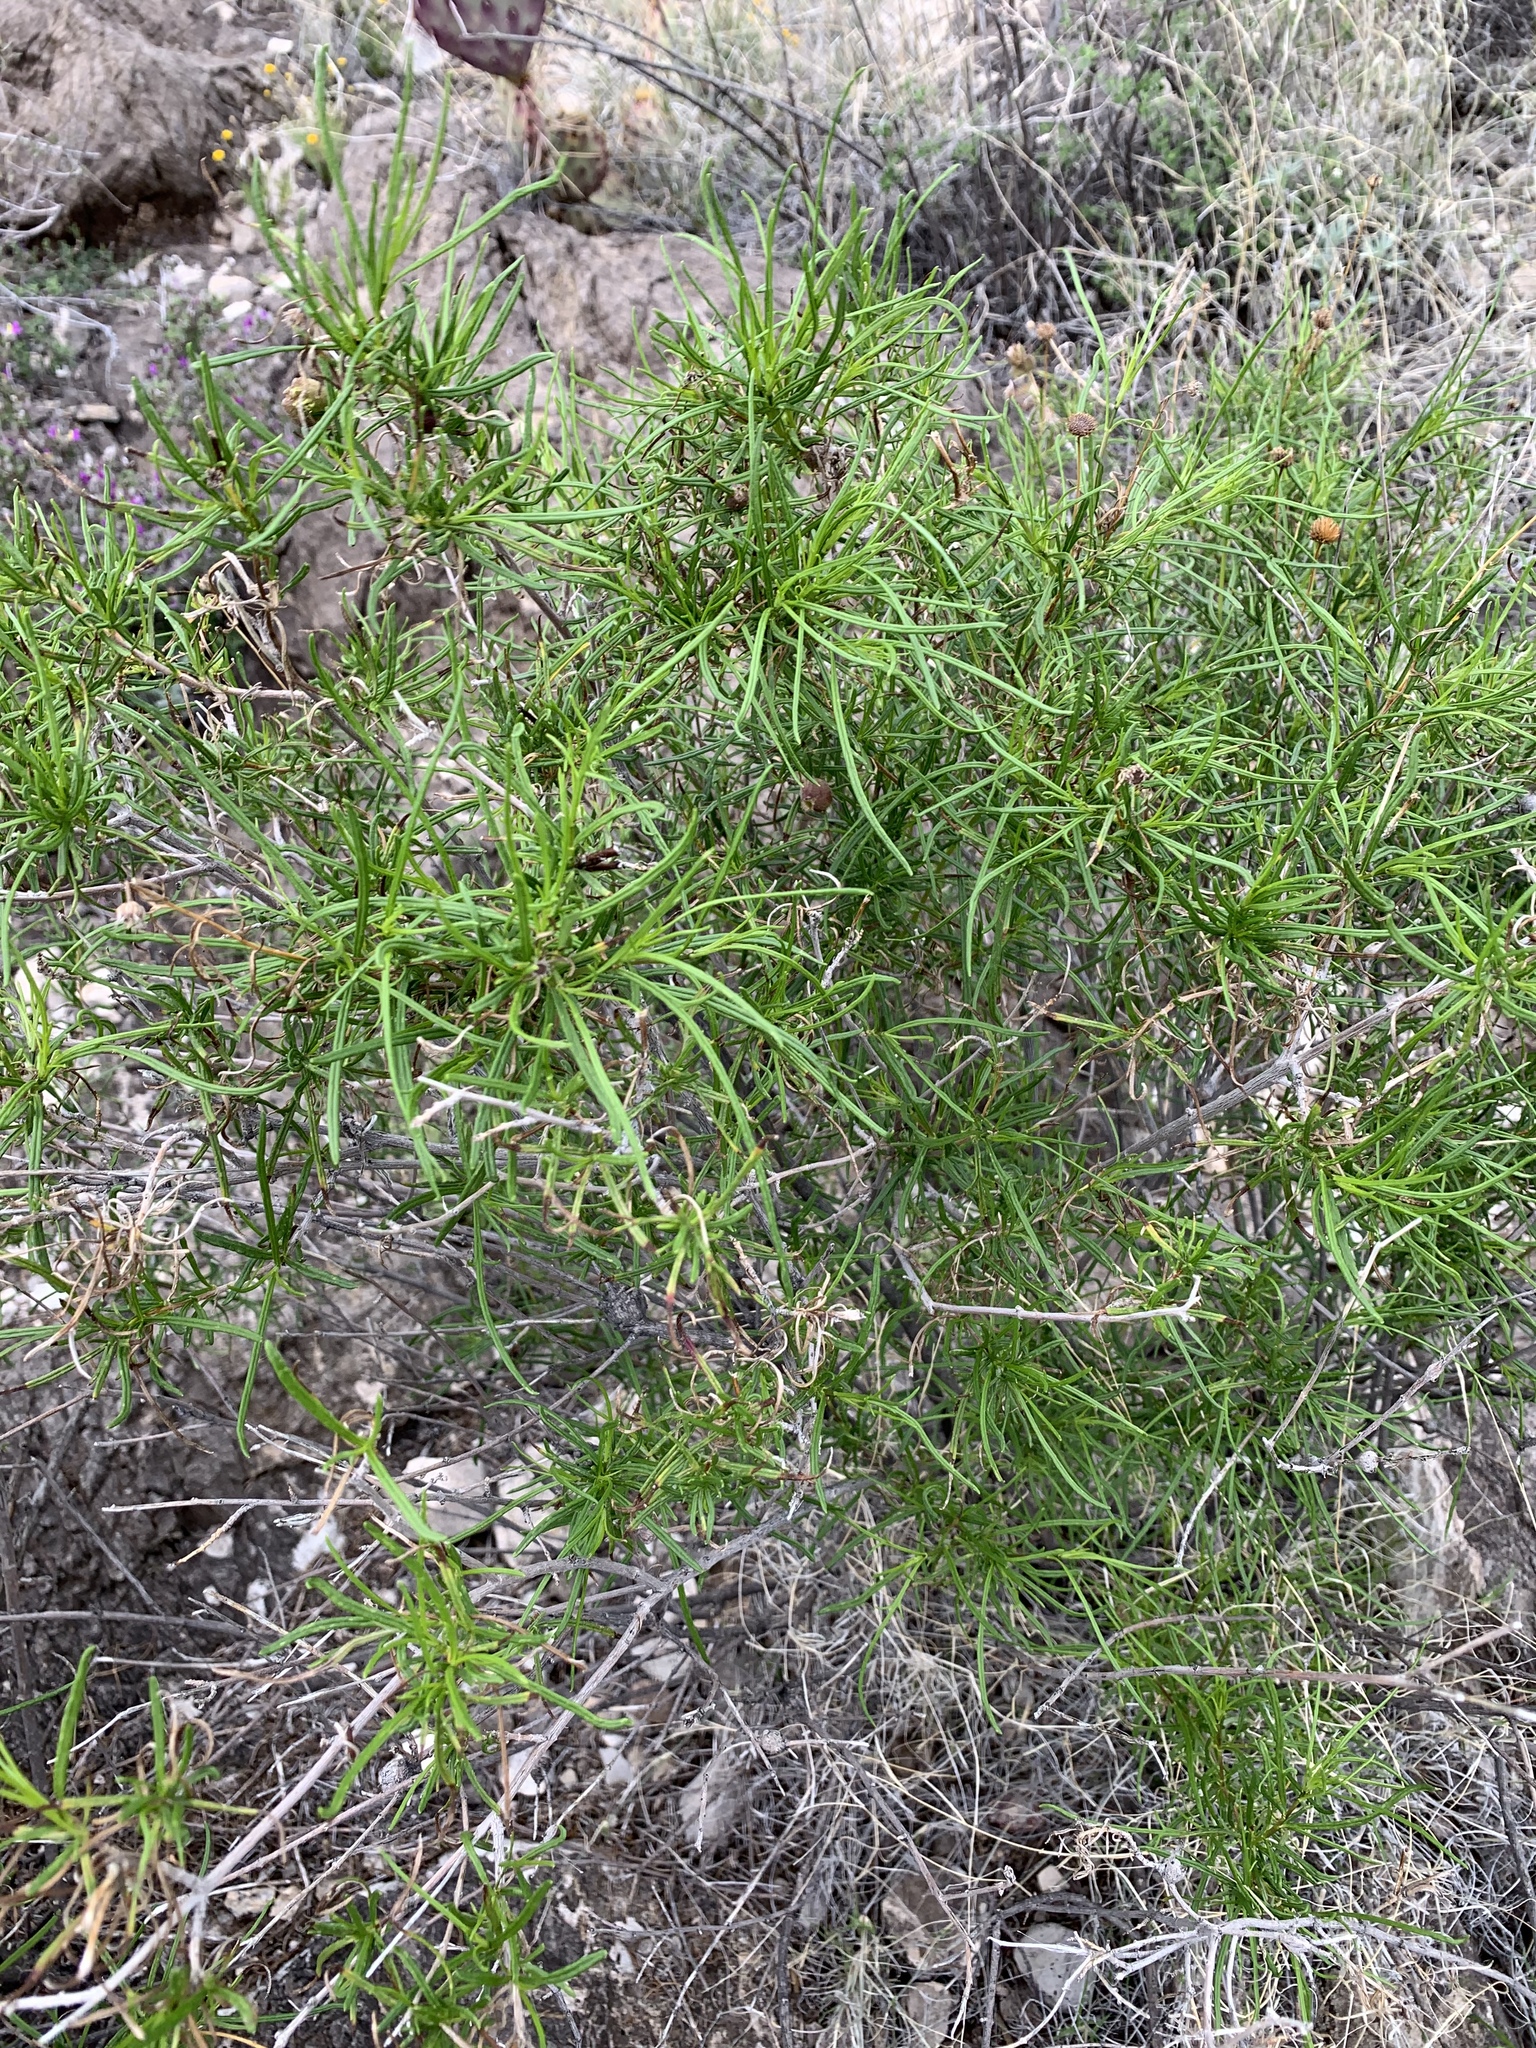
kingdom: Plantae
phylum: Tracheophyta
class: Magnoliopsida
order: Asterales
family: Asteraceae
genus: Sidneya
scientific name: Sidneya tenuifolia
